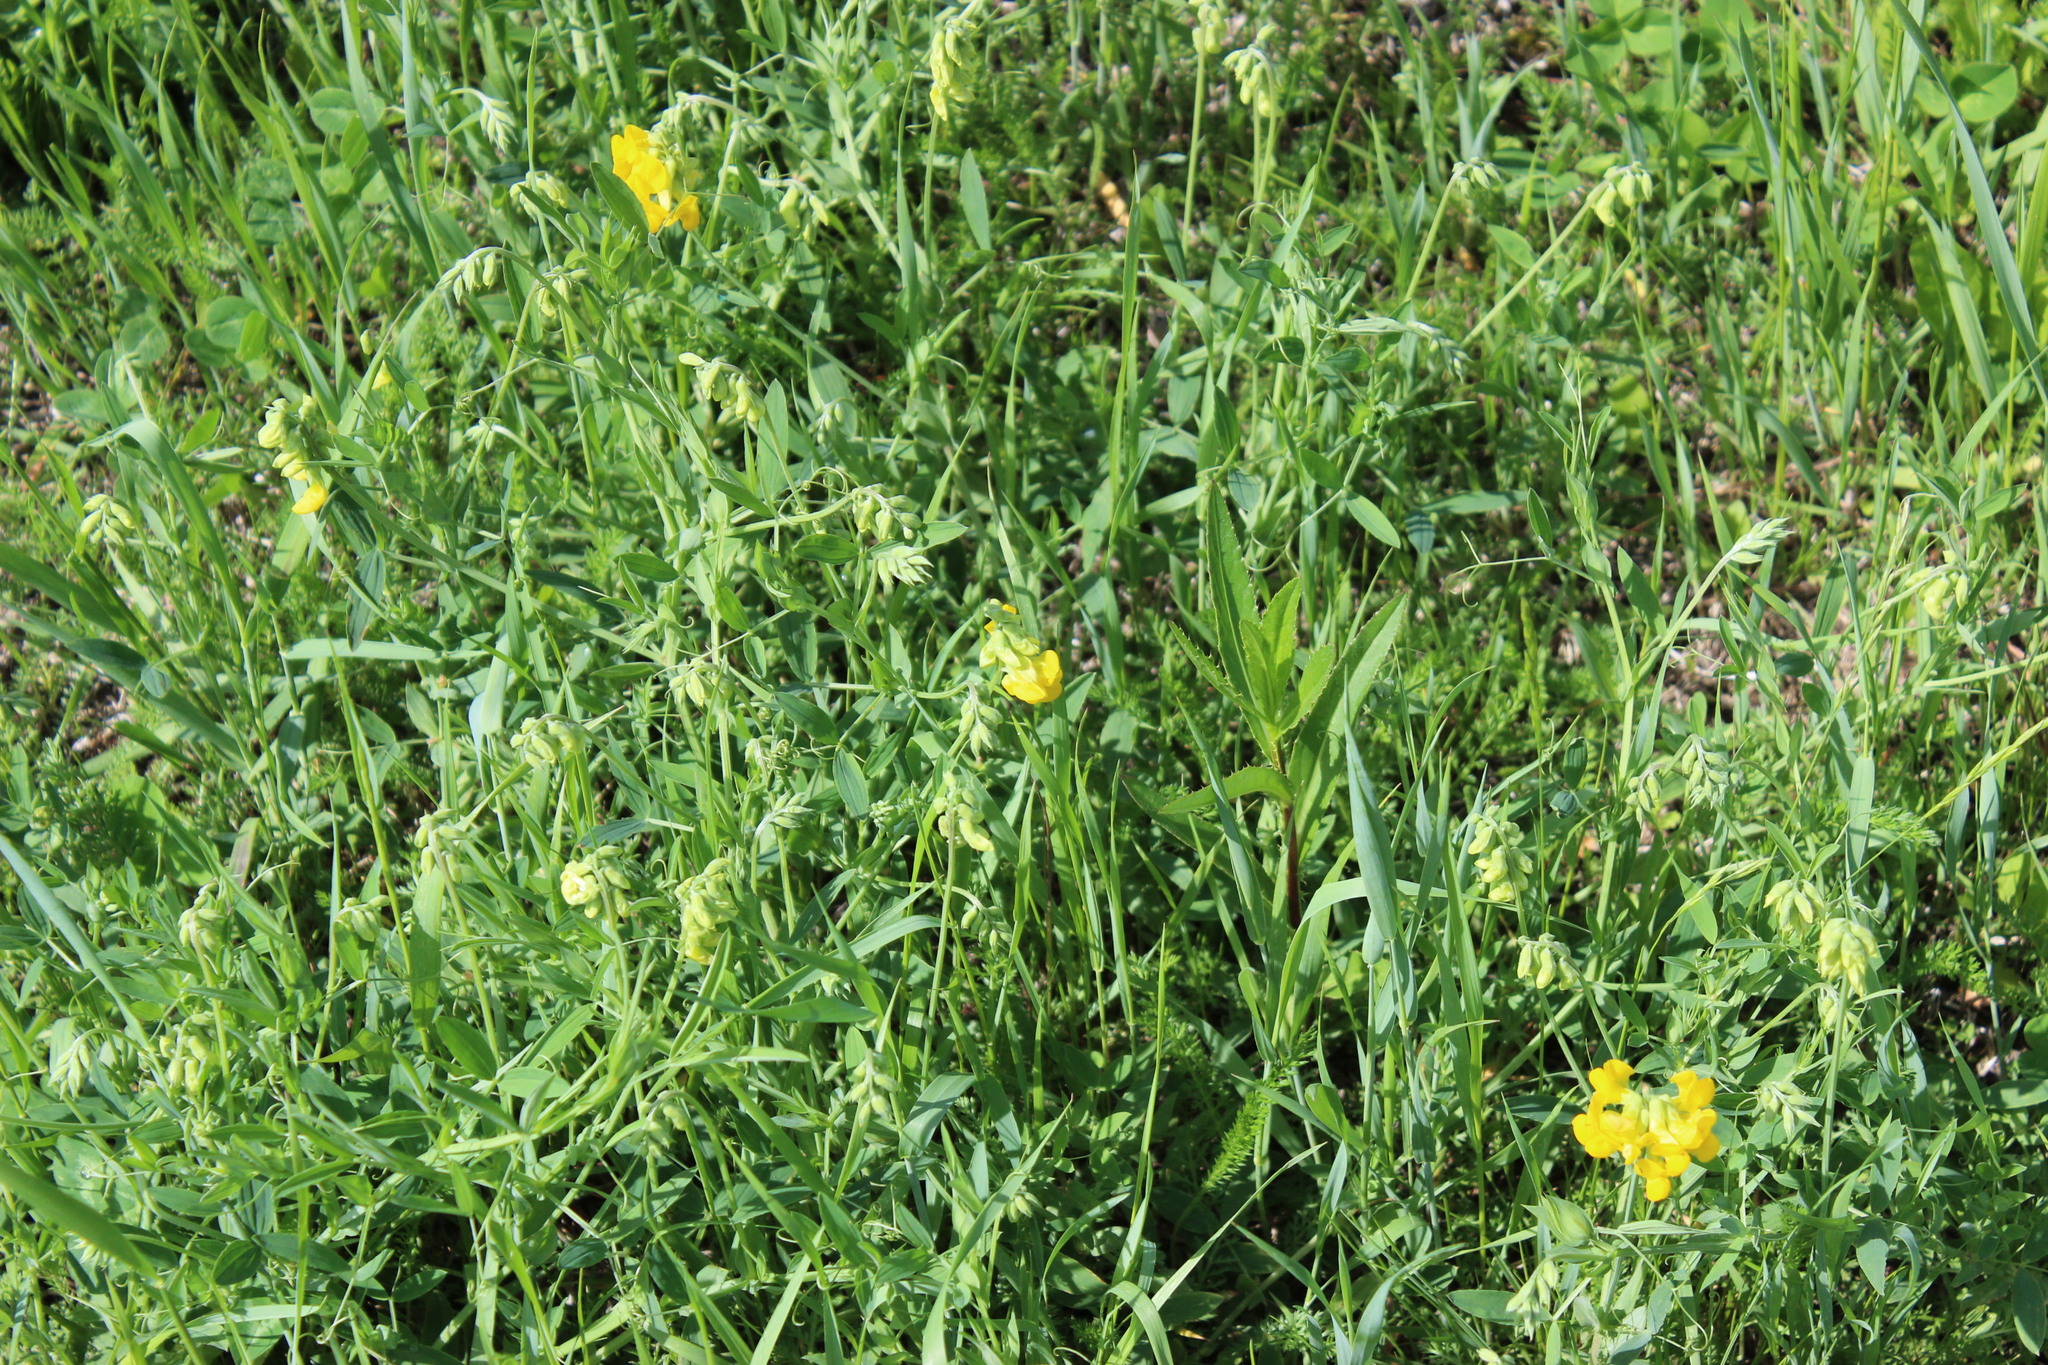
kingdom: Plantae
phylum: Tracheophyta
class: Magnoliopsida
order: Fabales
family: Fabaceae
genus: Lathyrus
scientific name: Lathyrus pratensis
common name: Meadow vetchling
